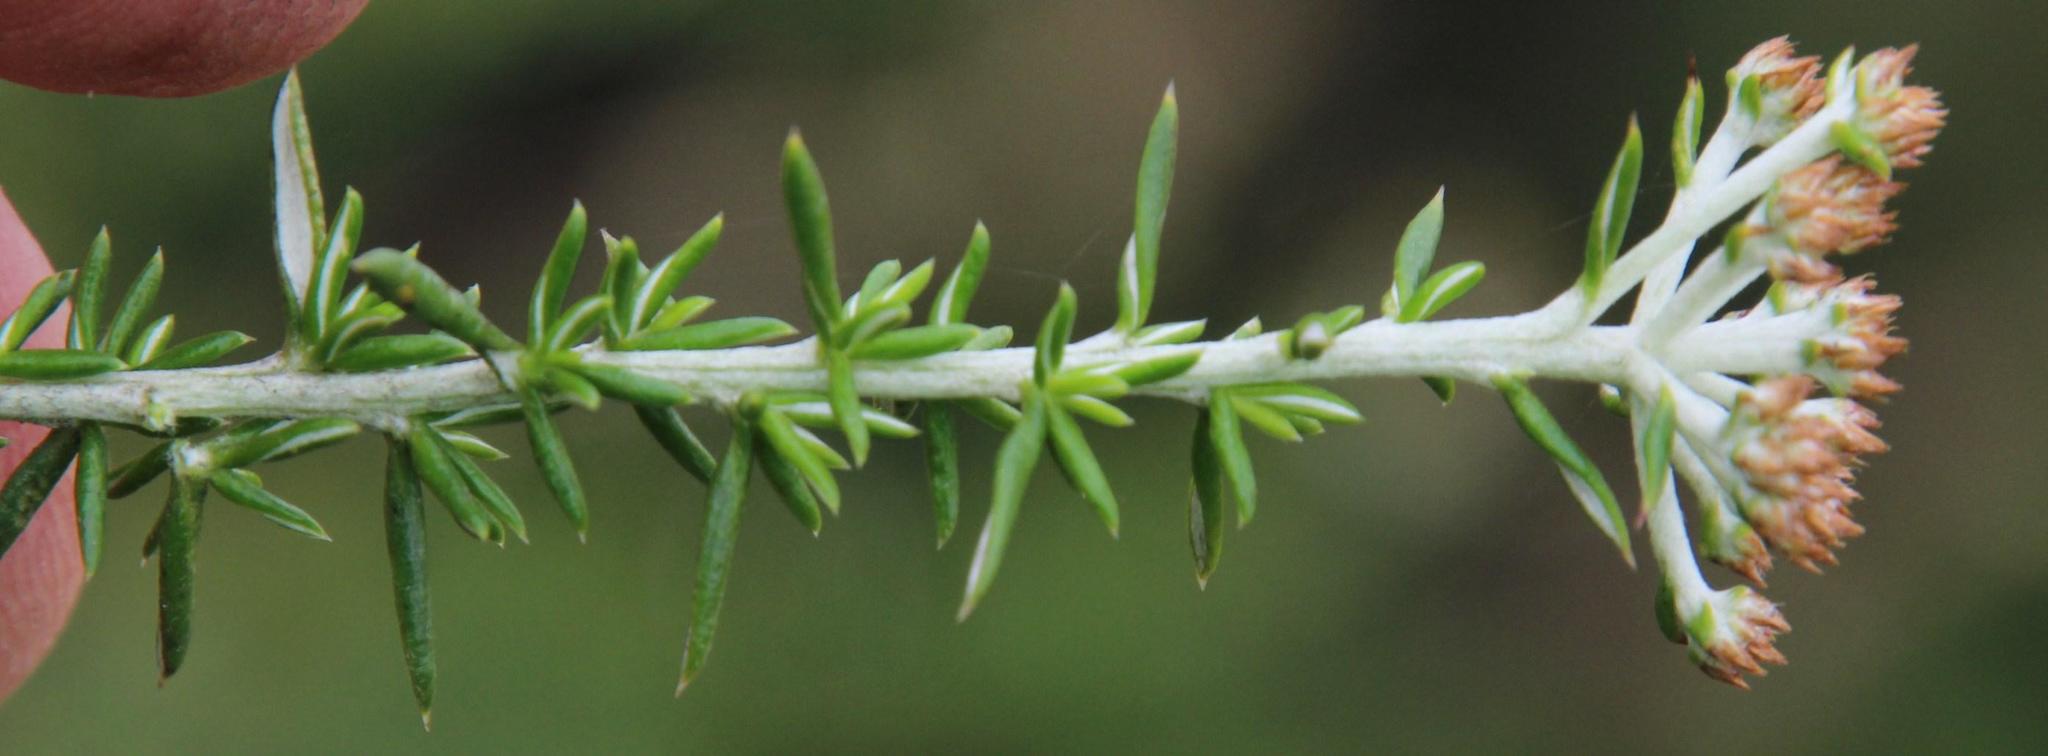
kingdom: Plantae
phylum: Tracheophyta
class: Magnoliopsida
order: Asterales
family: Asteraceae
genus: Metalasia
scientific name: Metalasia densa
